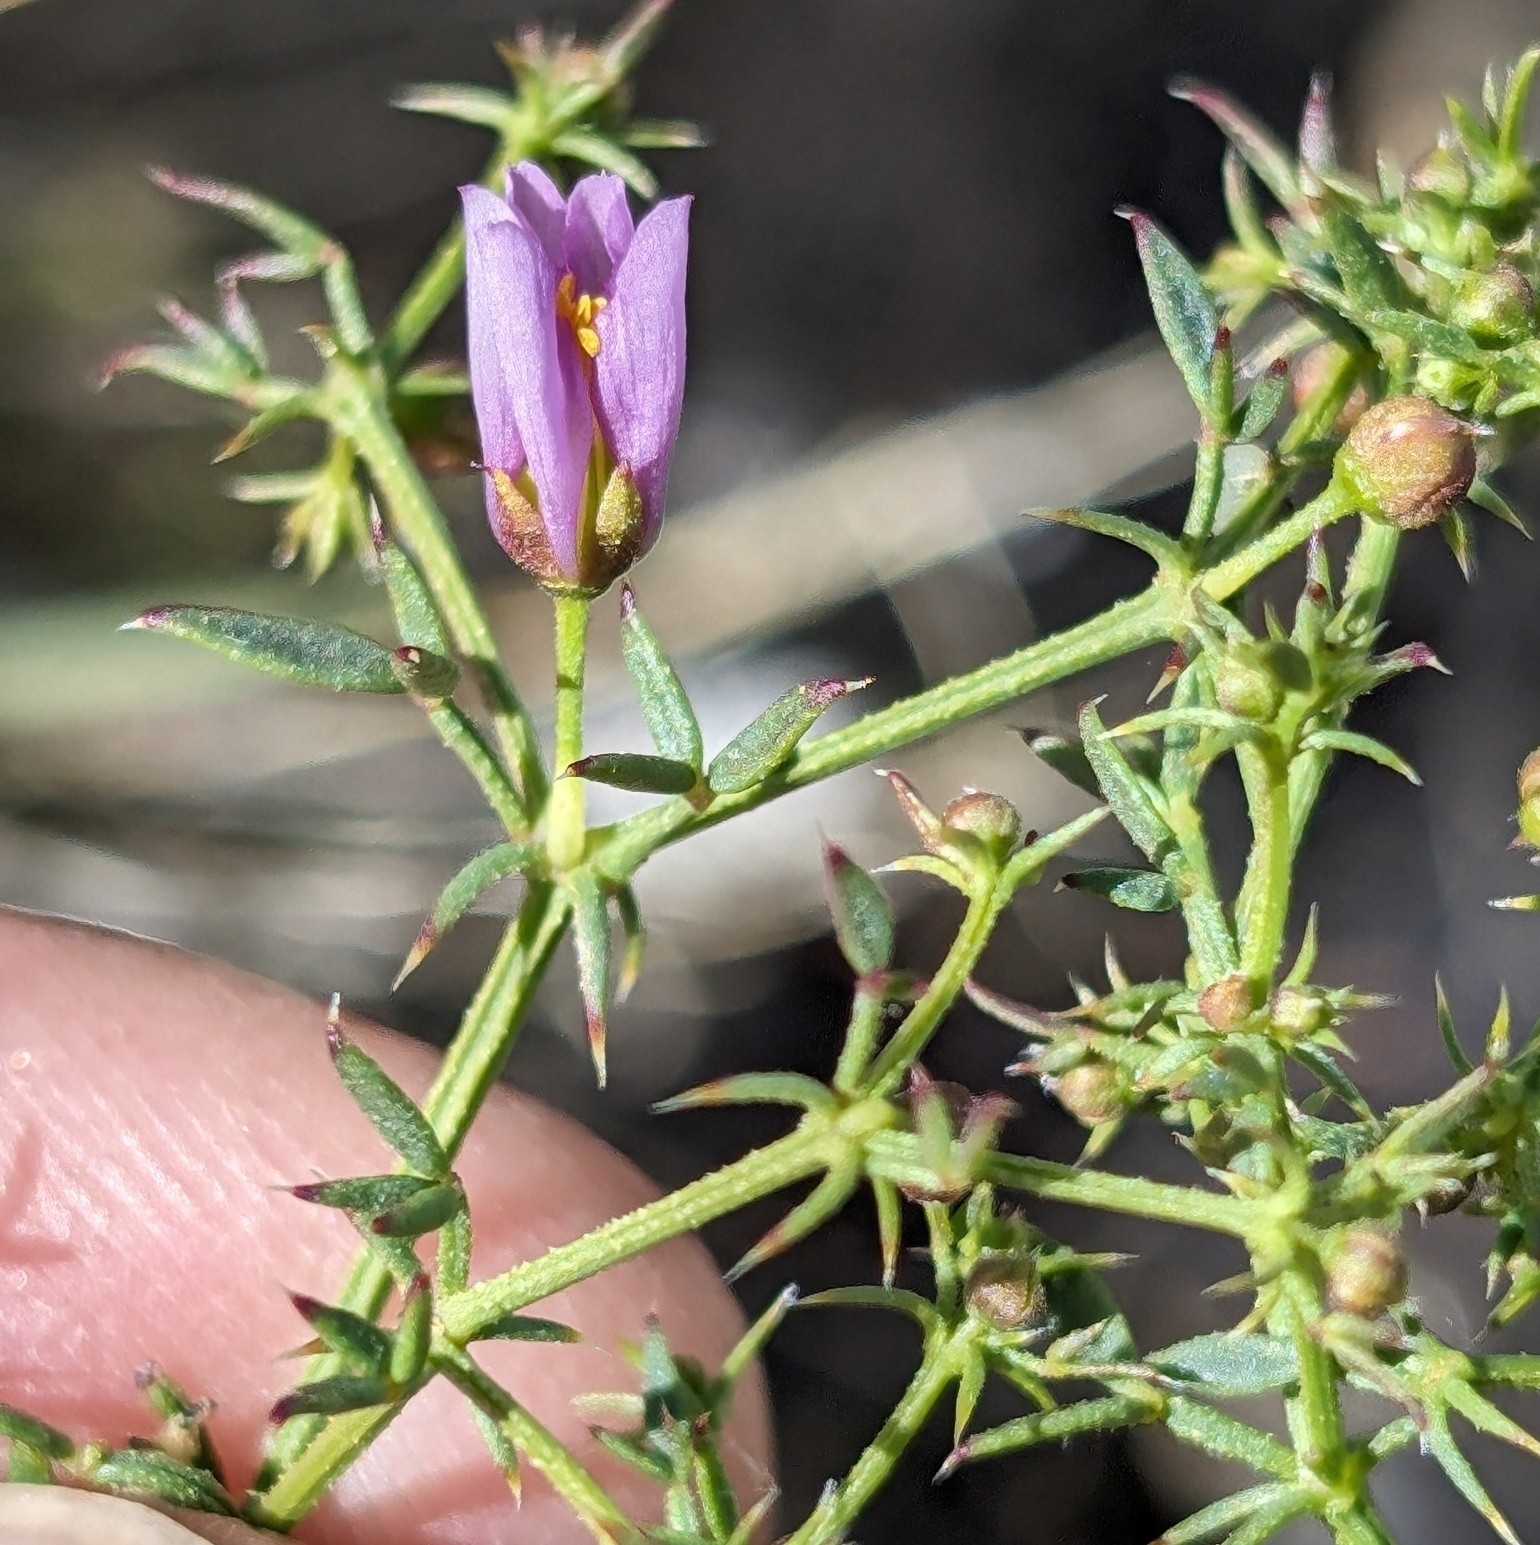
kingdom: Plantae
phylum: Tracheophyta
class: Magnoliopsida
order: Zygophyllales
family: Zygophyllaceae
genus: Fagonia
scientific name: Fagonia laevis
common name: California fagonbush
